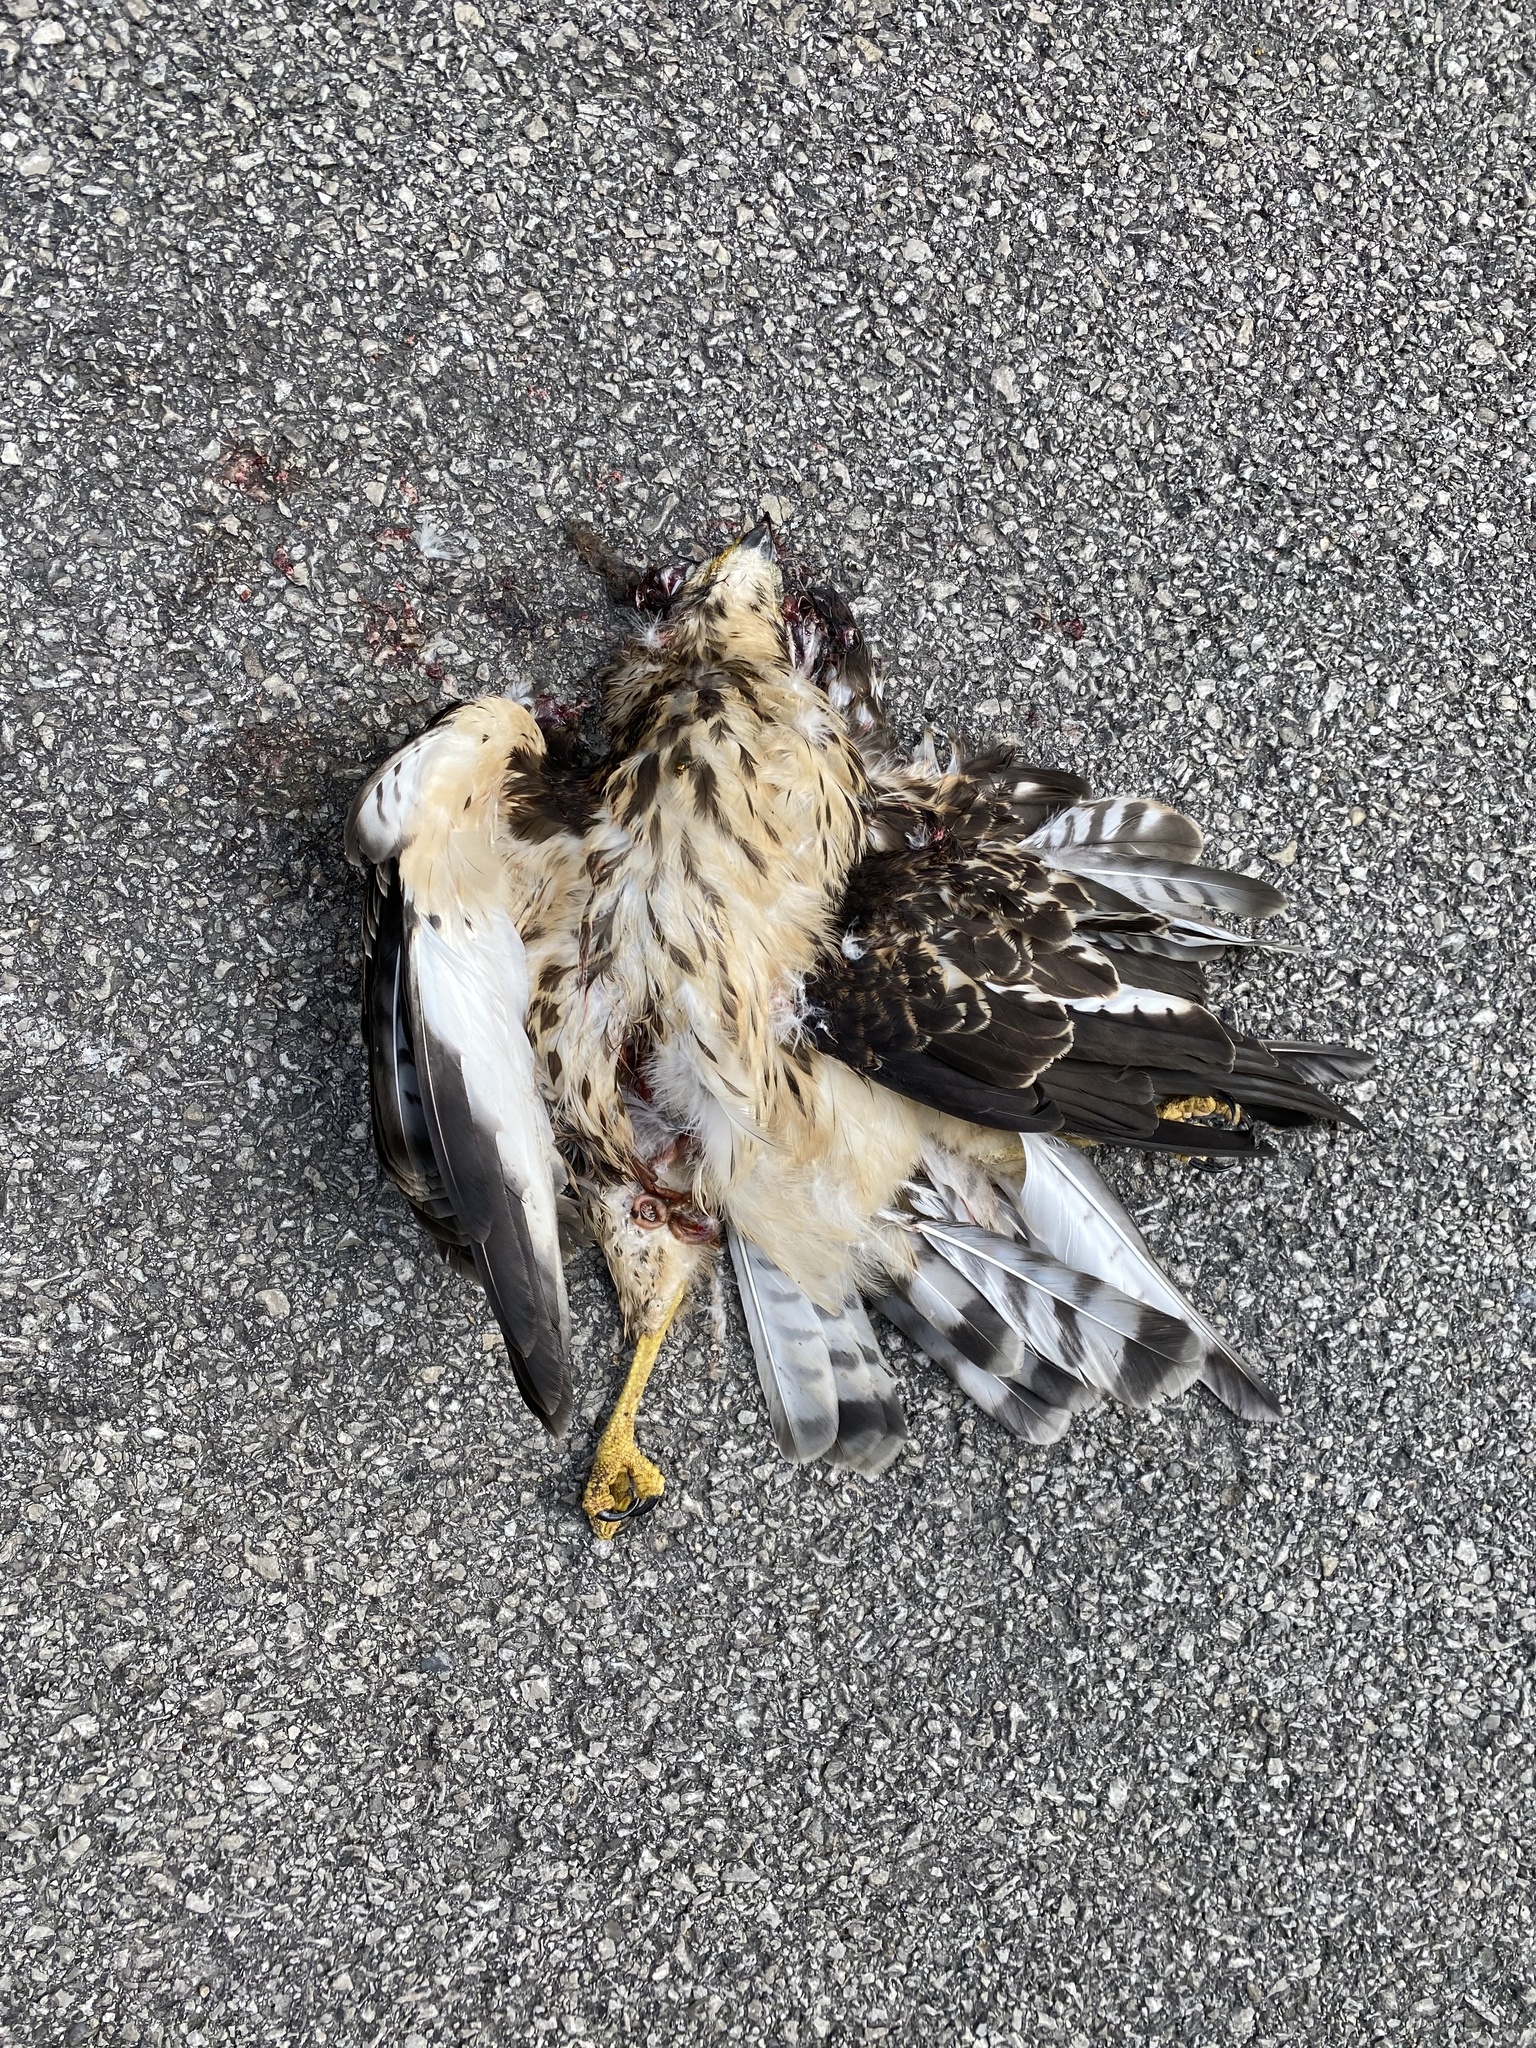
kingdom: Animalia
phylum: Chordata
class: Aves
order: Accipitriformes
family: Accipitridae
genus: Buteo
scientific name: Buteo platypterus
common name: Broad-winged hawk
